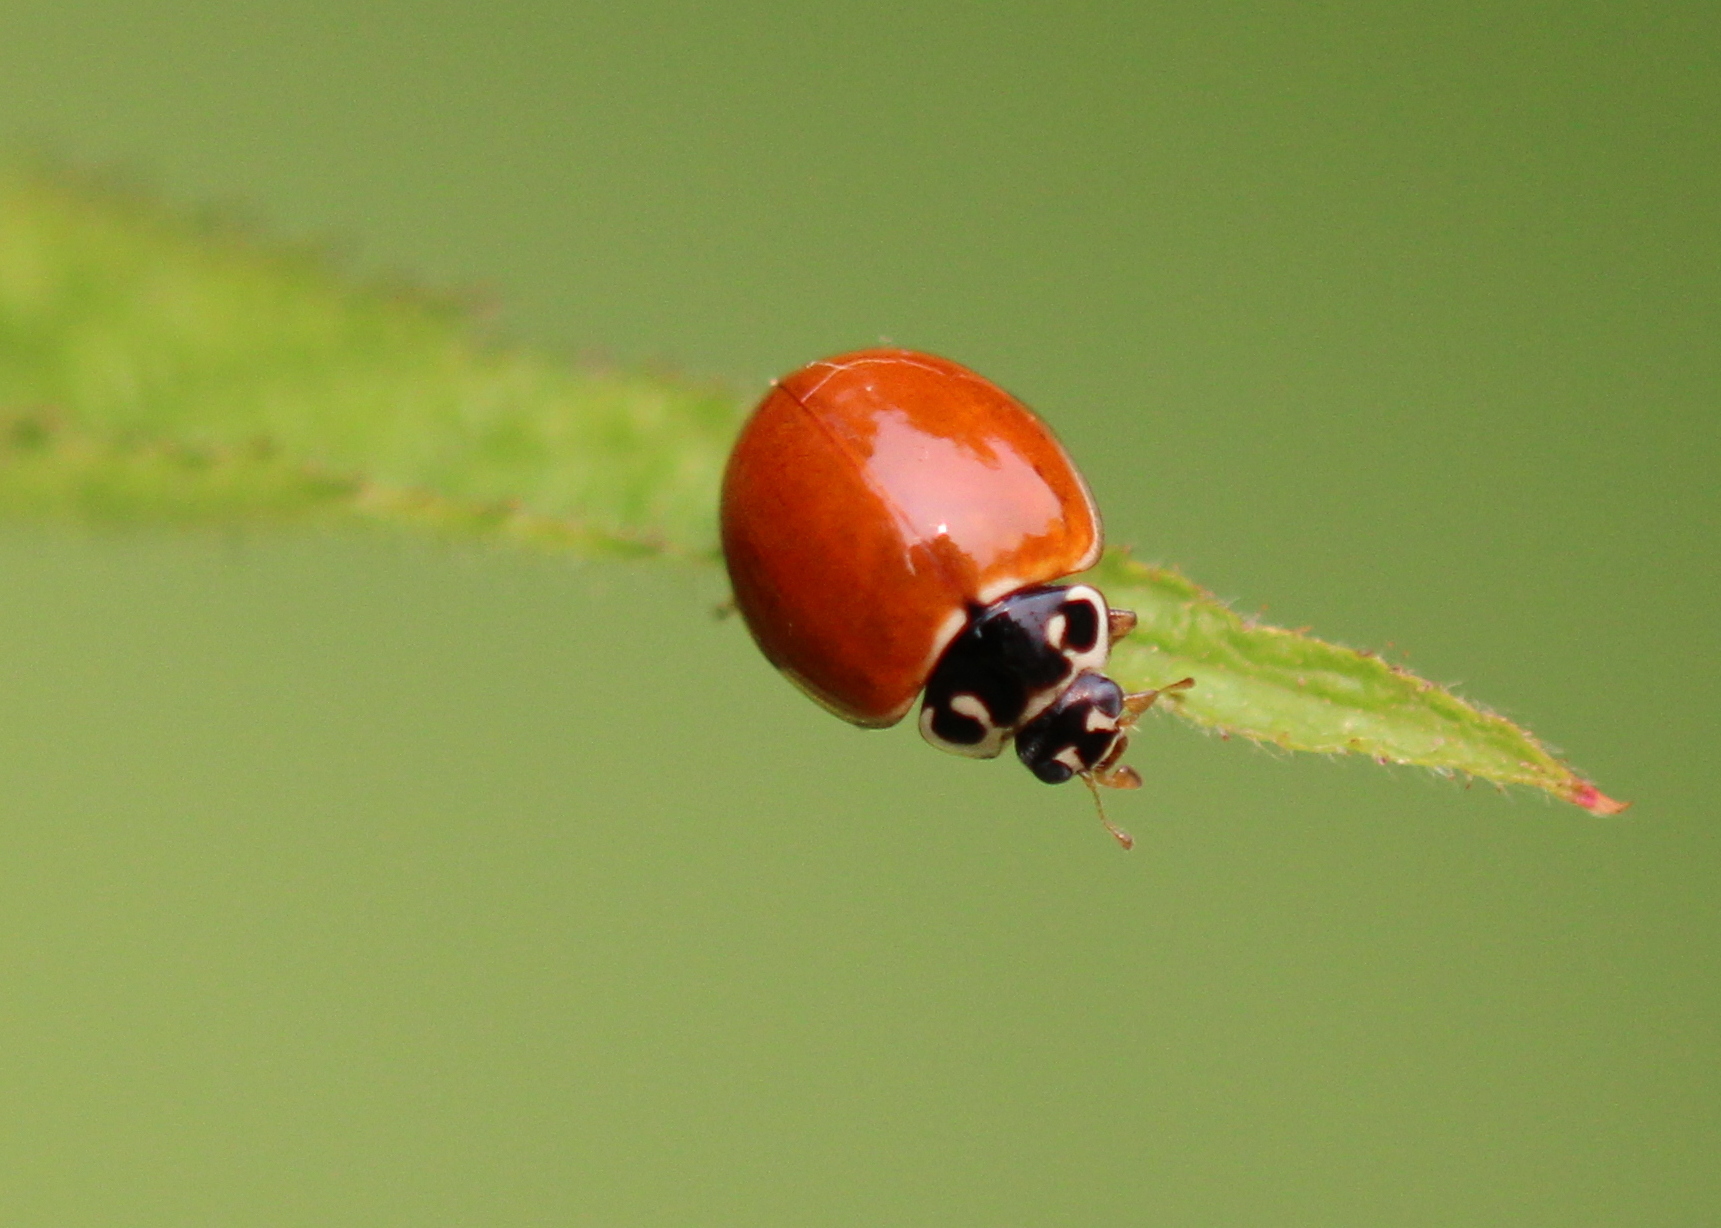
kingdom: Animalia
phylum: Arthropoda
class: Insecta
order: Coleoptera
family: Coccinellidae
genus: Cycloneda
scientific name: Cycloneda munda
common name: Polished lady beetle
